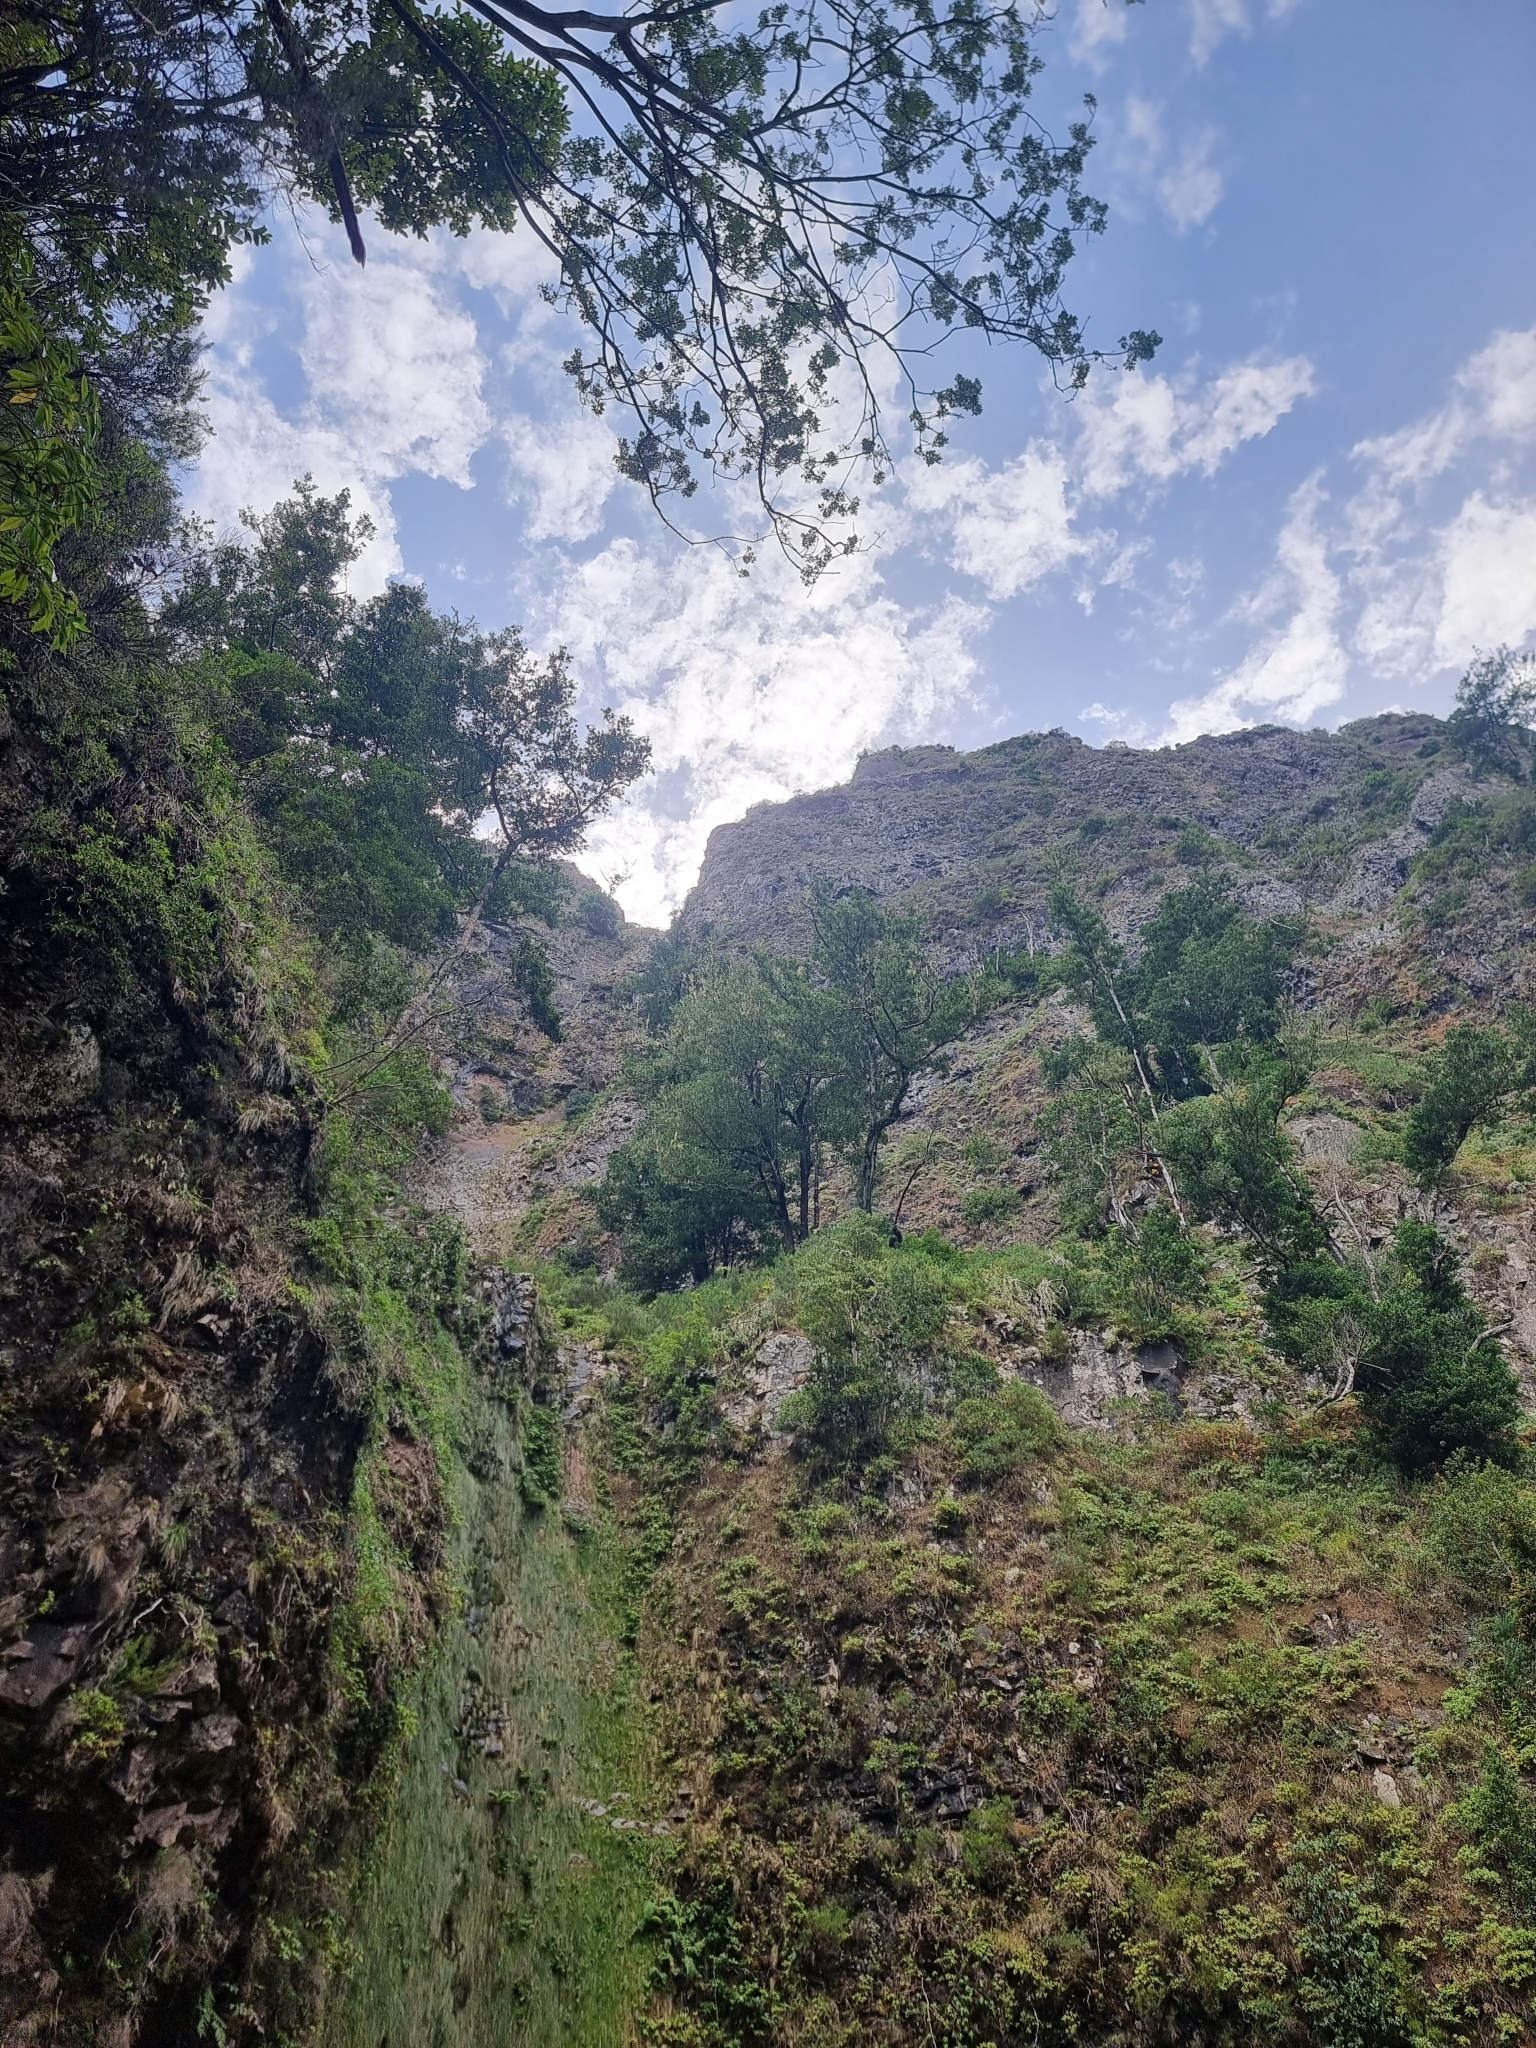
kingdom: Plantae
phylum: Tracheophyta
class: Magnoliopsida
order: Laurales
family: Lauraceae
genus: Mespilodaphne
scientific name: Mespilodaphne foetens
